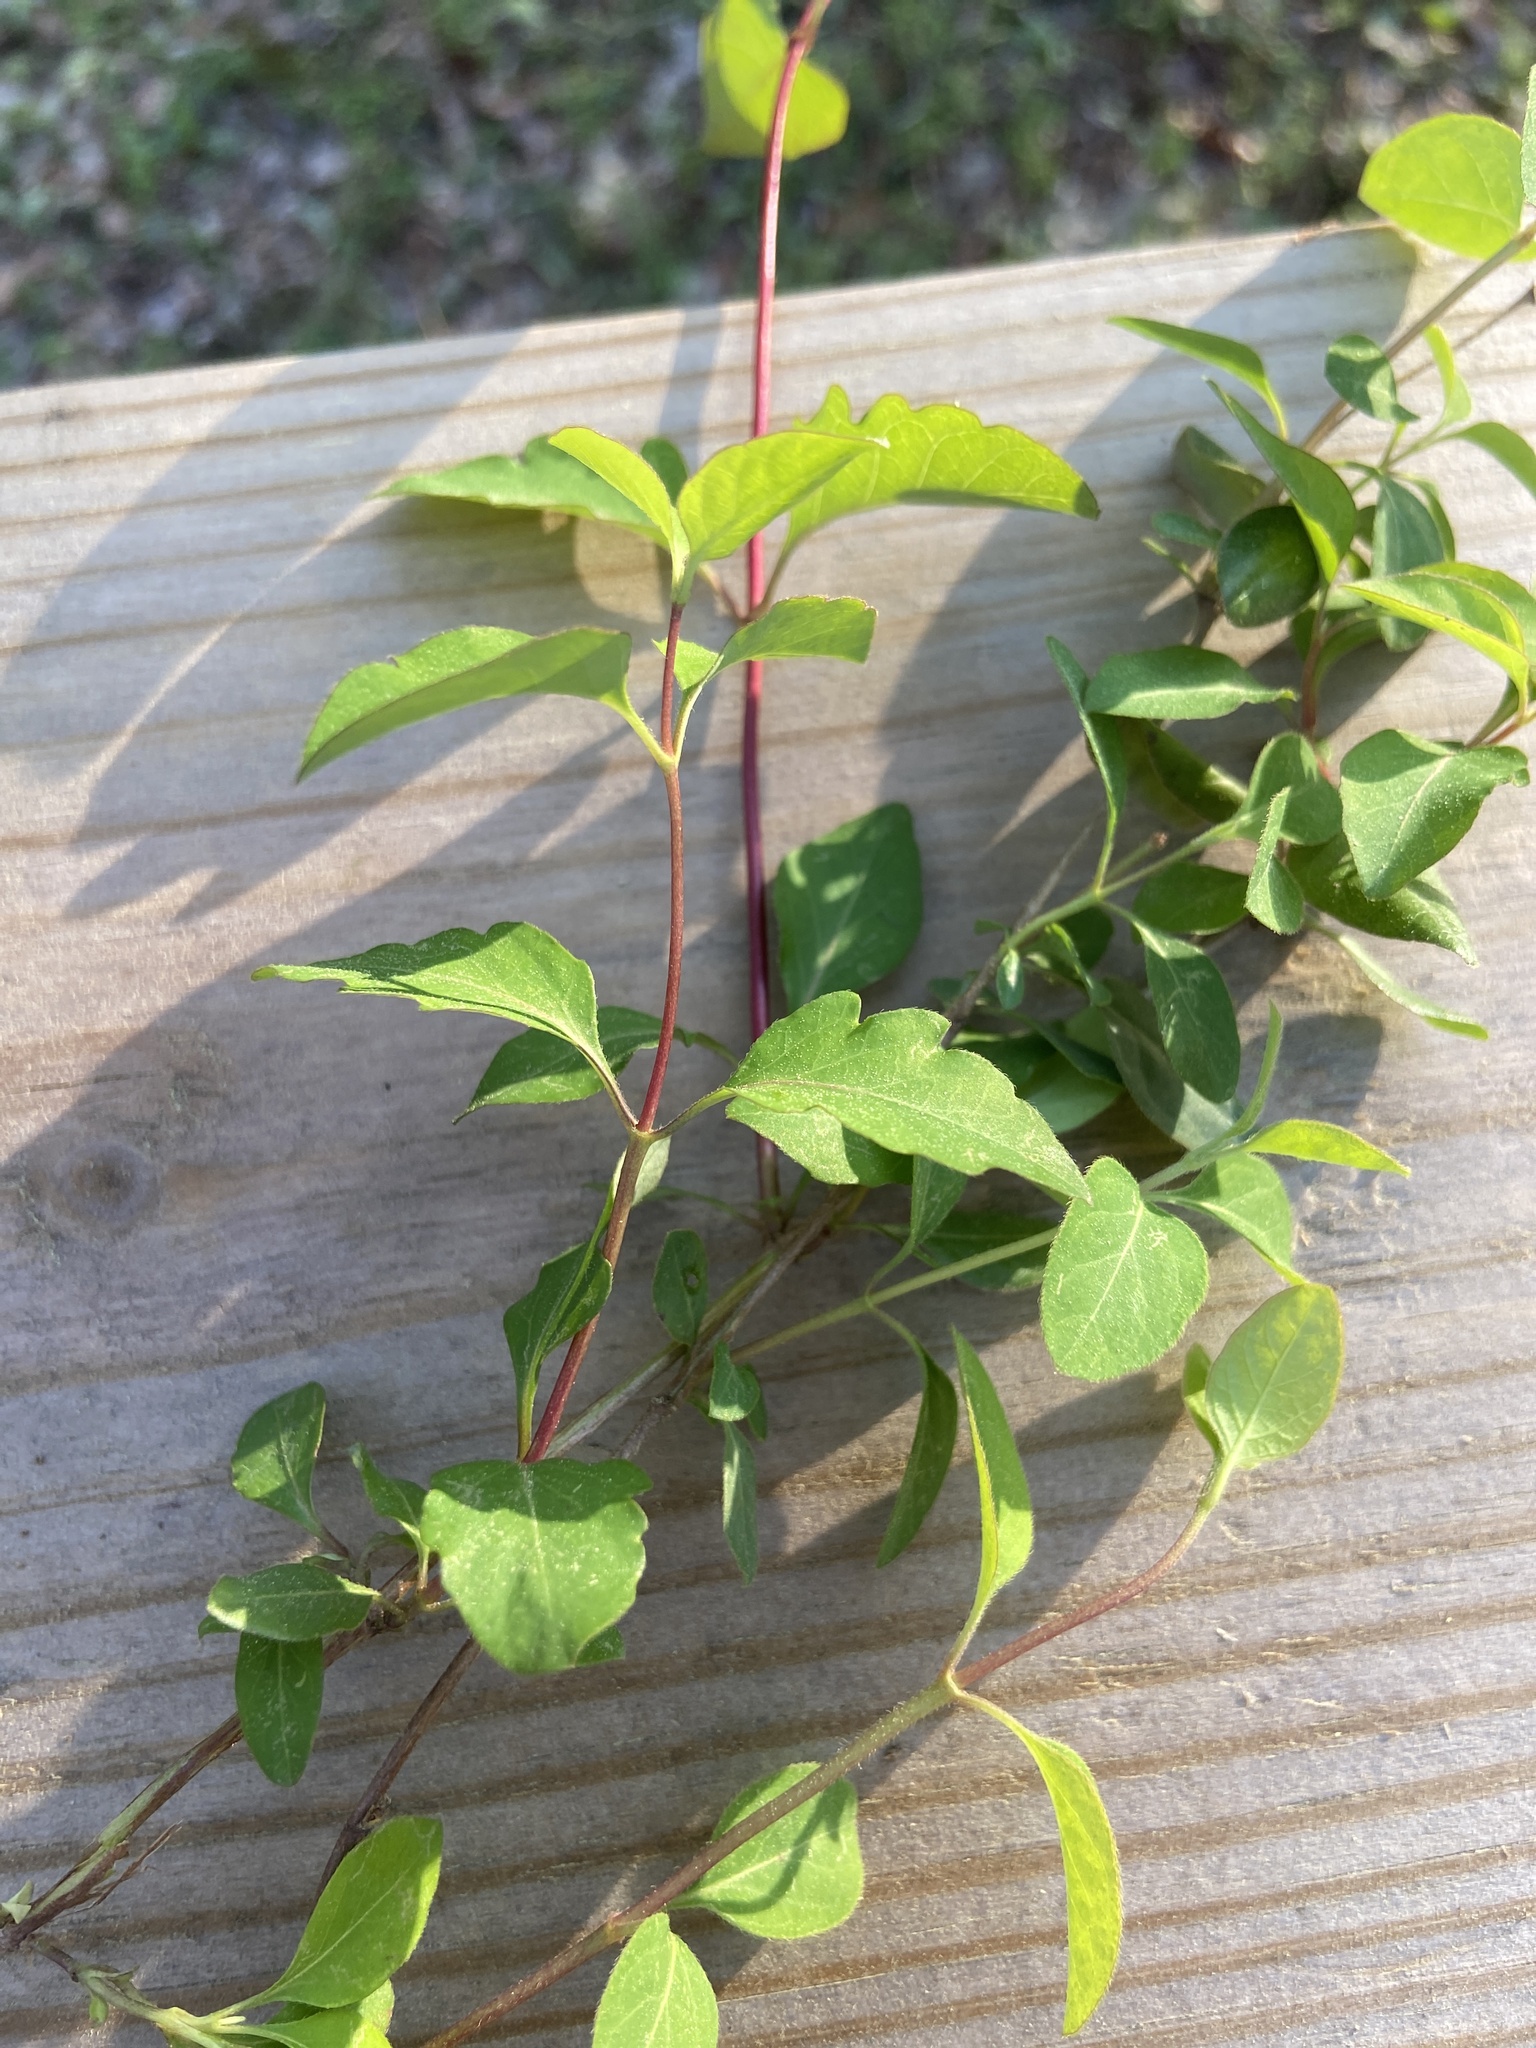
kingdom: Plantae
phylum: Tracheophyta
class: Magnoliopsida
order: Dipsacales
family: Caprifoliaceae
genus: Lonicera
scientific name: Lonicera japonica
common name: Japanese honeysuckle
